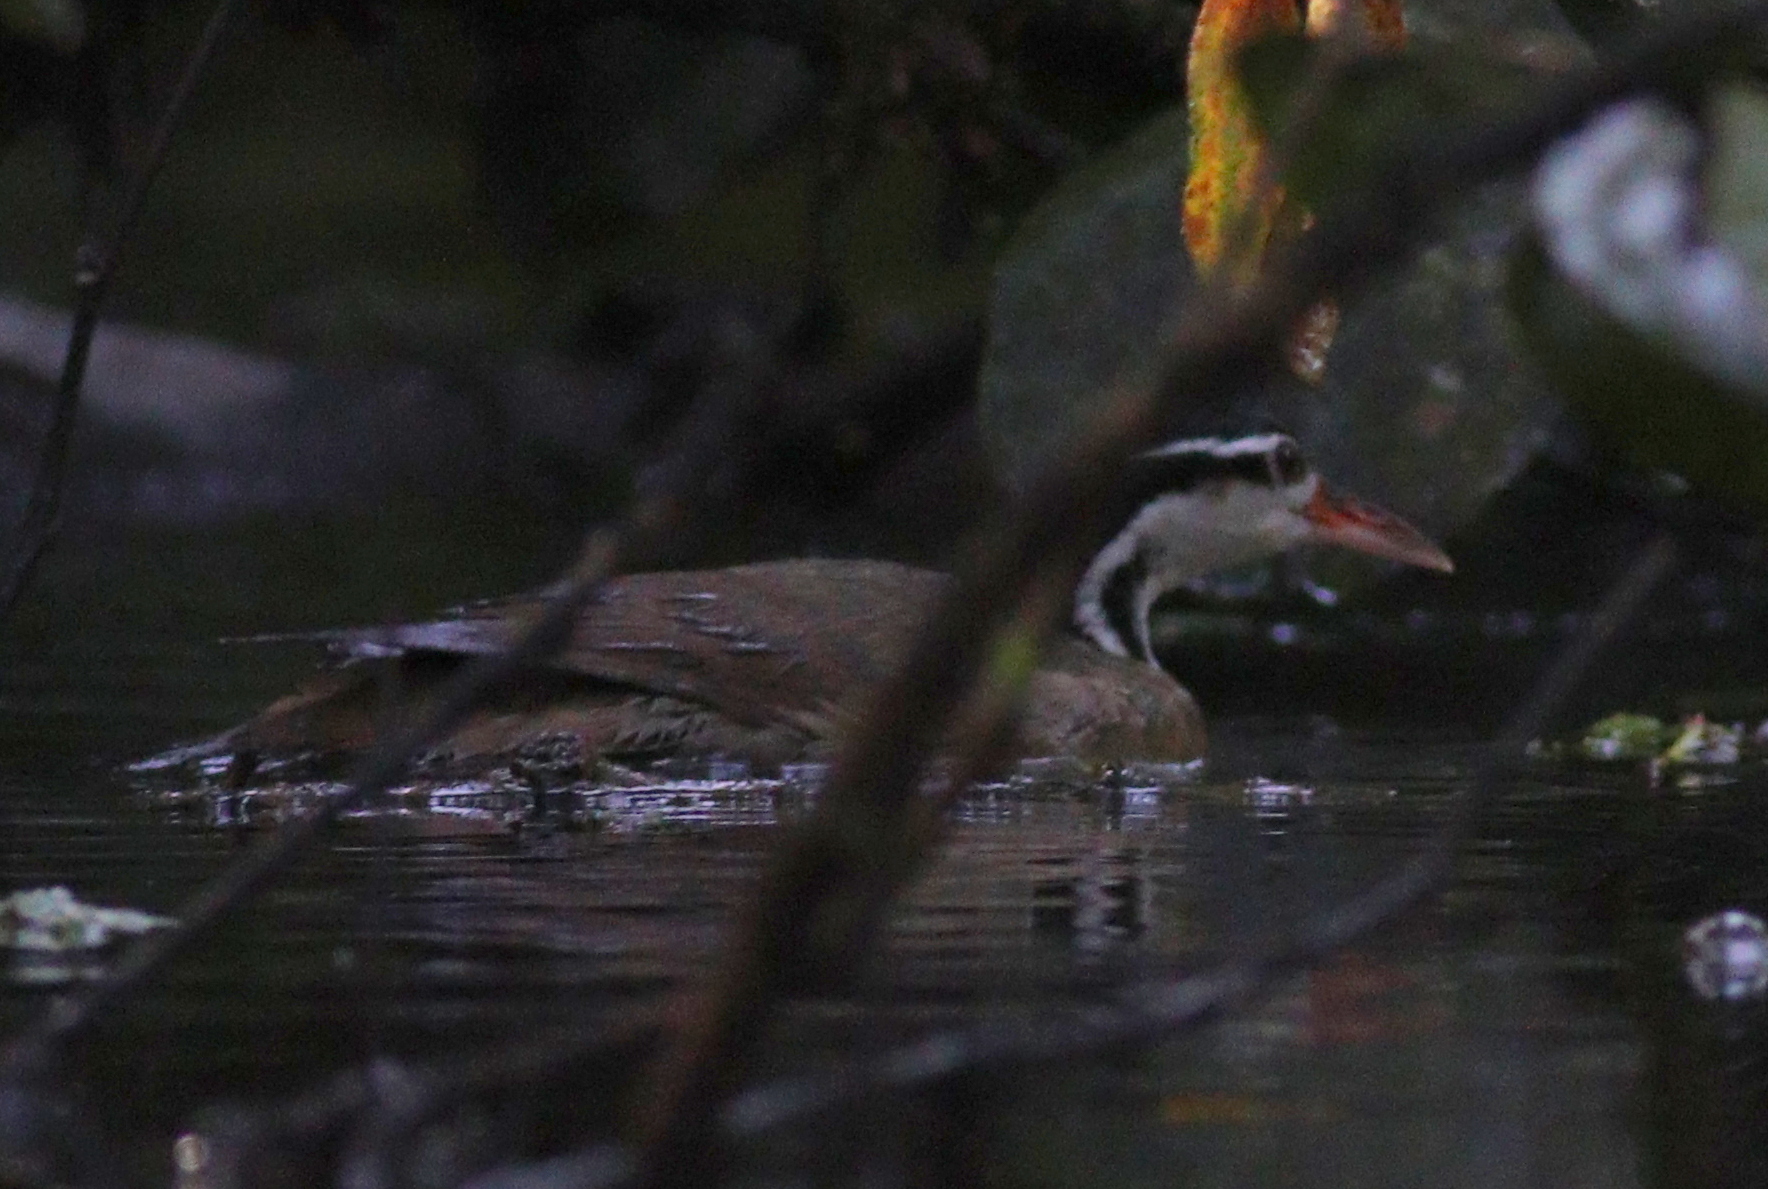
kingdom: Animalia
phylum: Chordata
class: Aves
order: Gruiformes
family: Heliornithidae
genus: Heliornis
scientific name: Heliornis fulica
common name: Sungrebe
